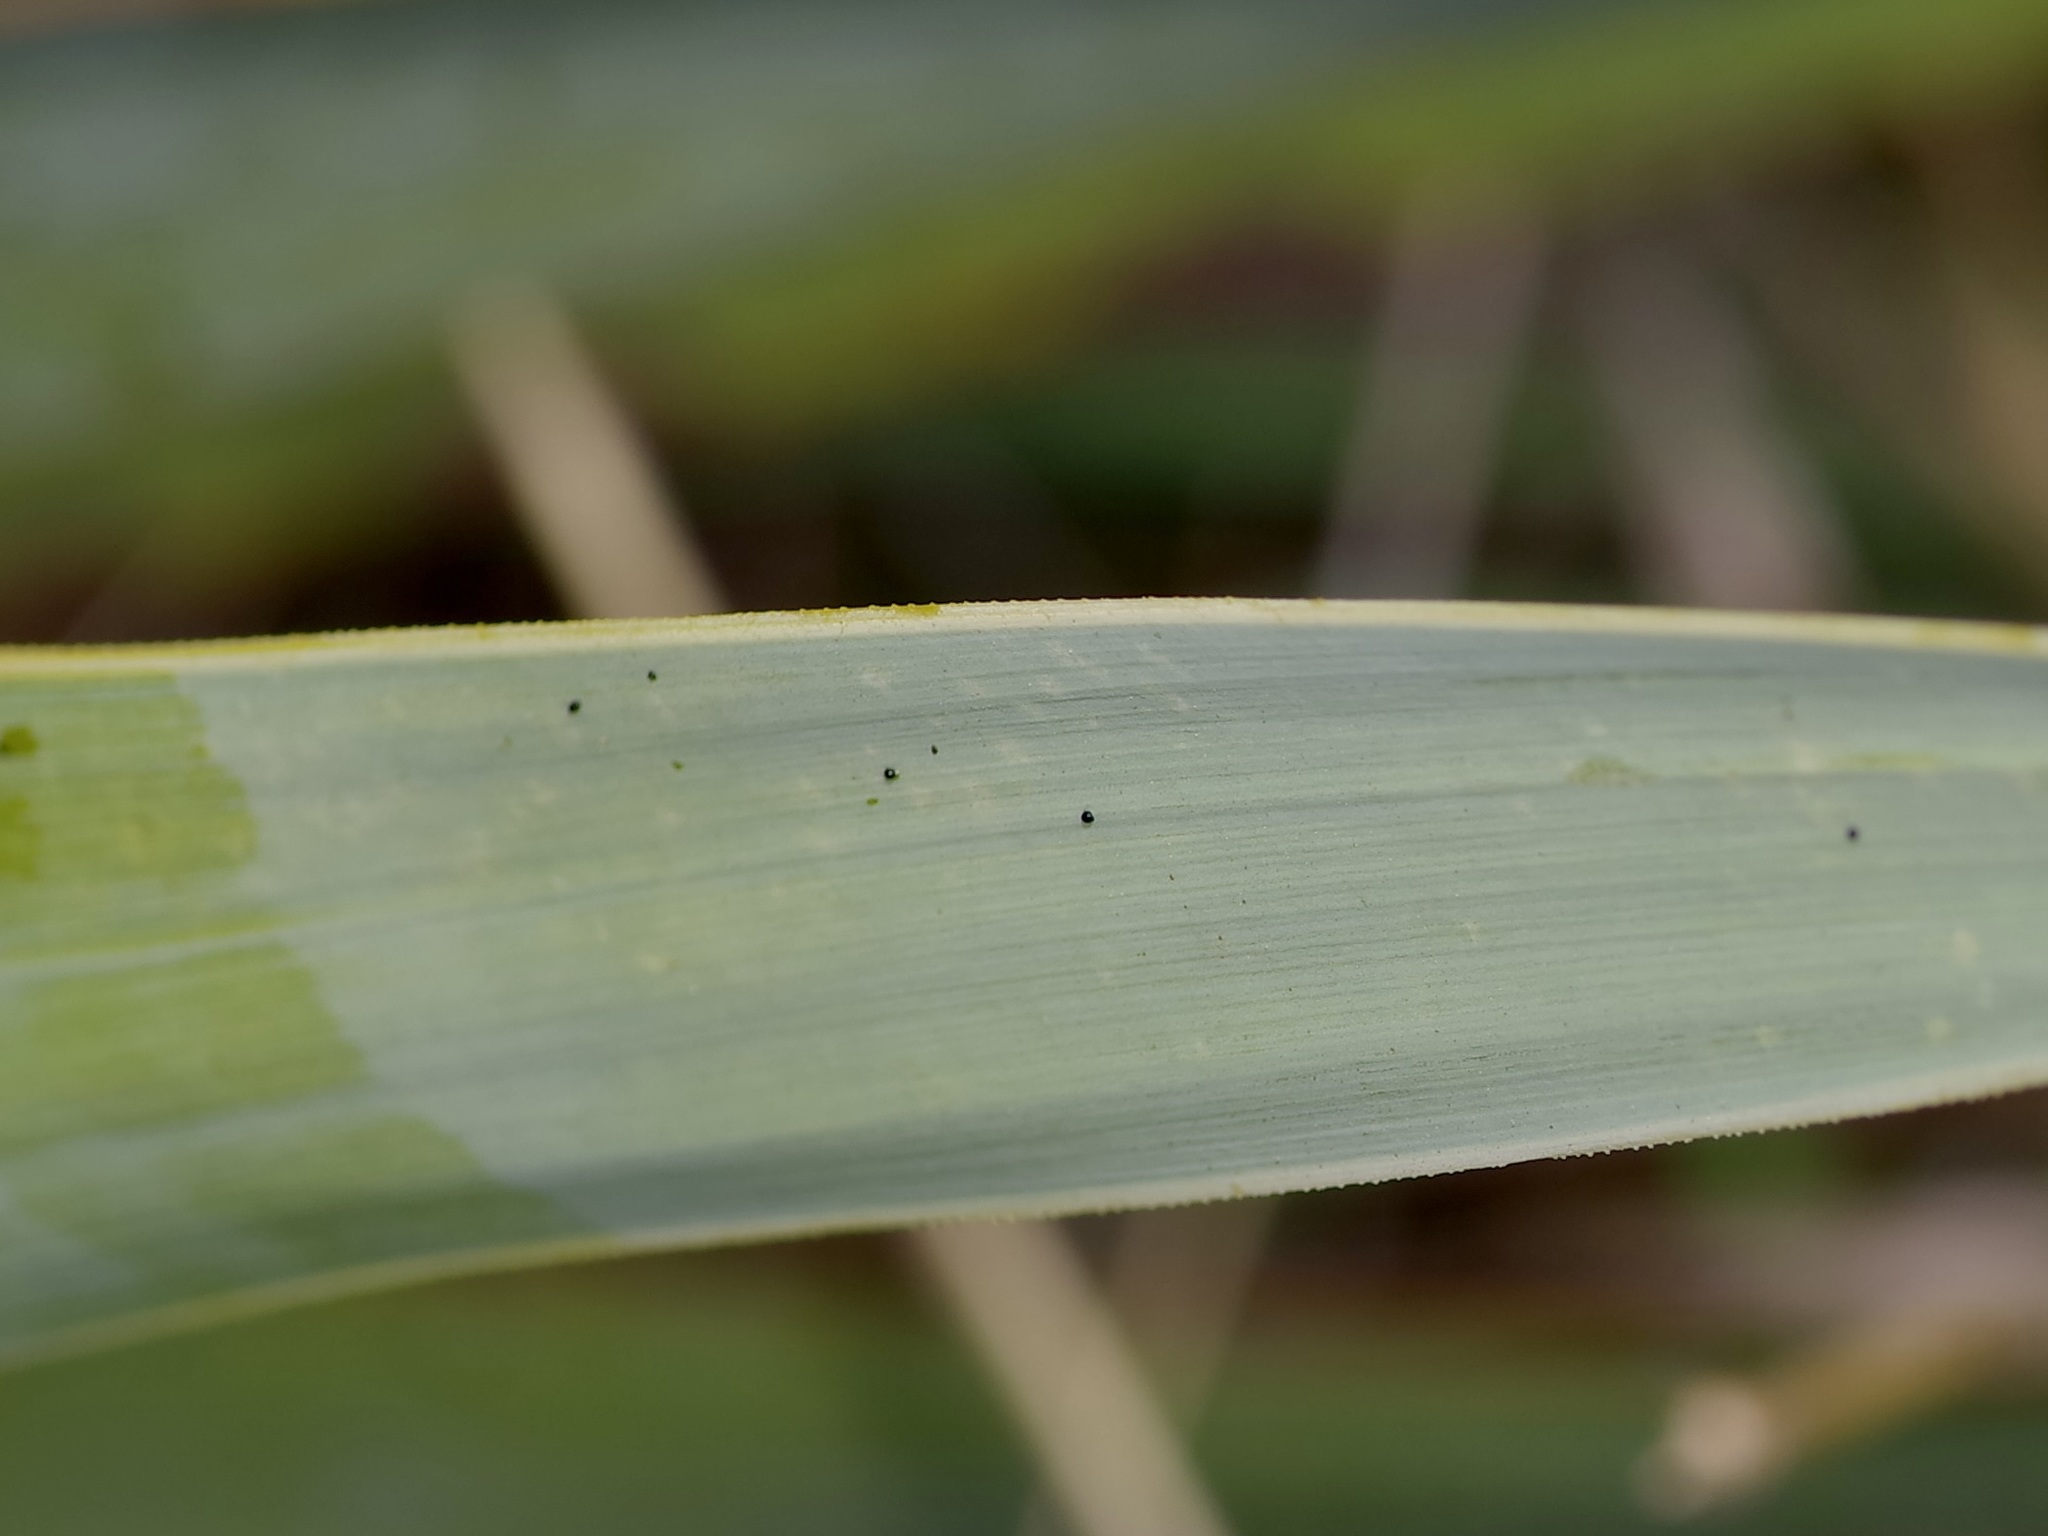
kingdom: Plantae
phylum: Tracheophyta
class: Liliopsida
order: Asparagales
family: Asparagaceae
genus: Yucca
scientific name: Yucca pallida
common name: Pale leaf yucca
